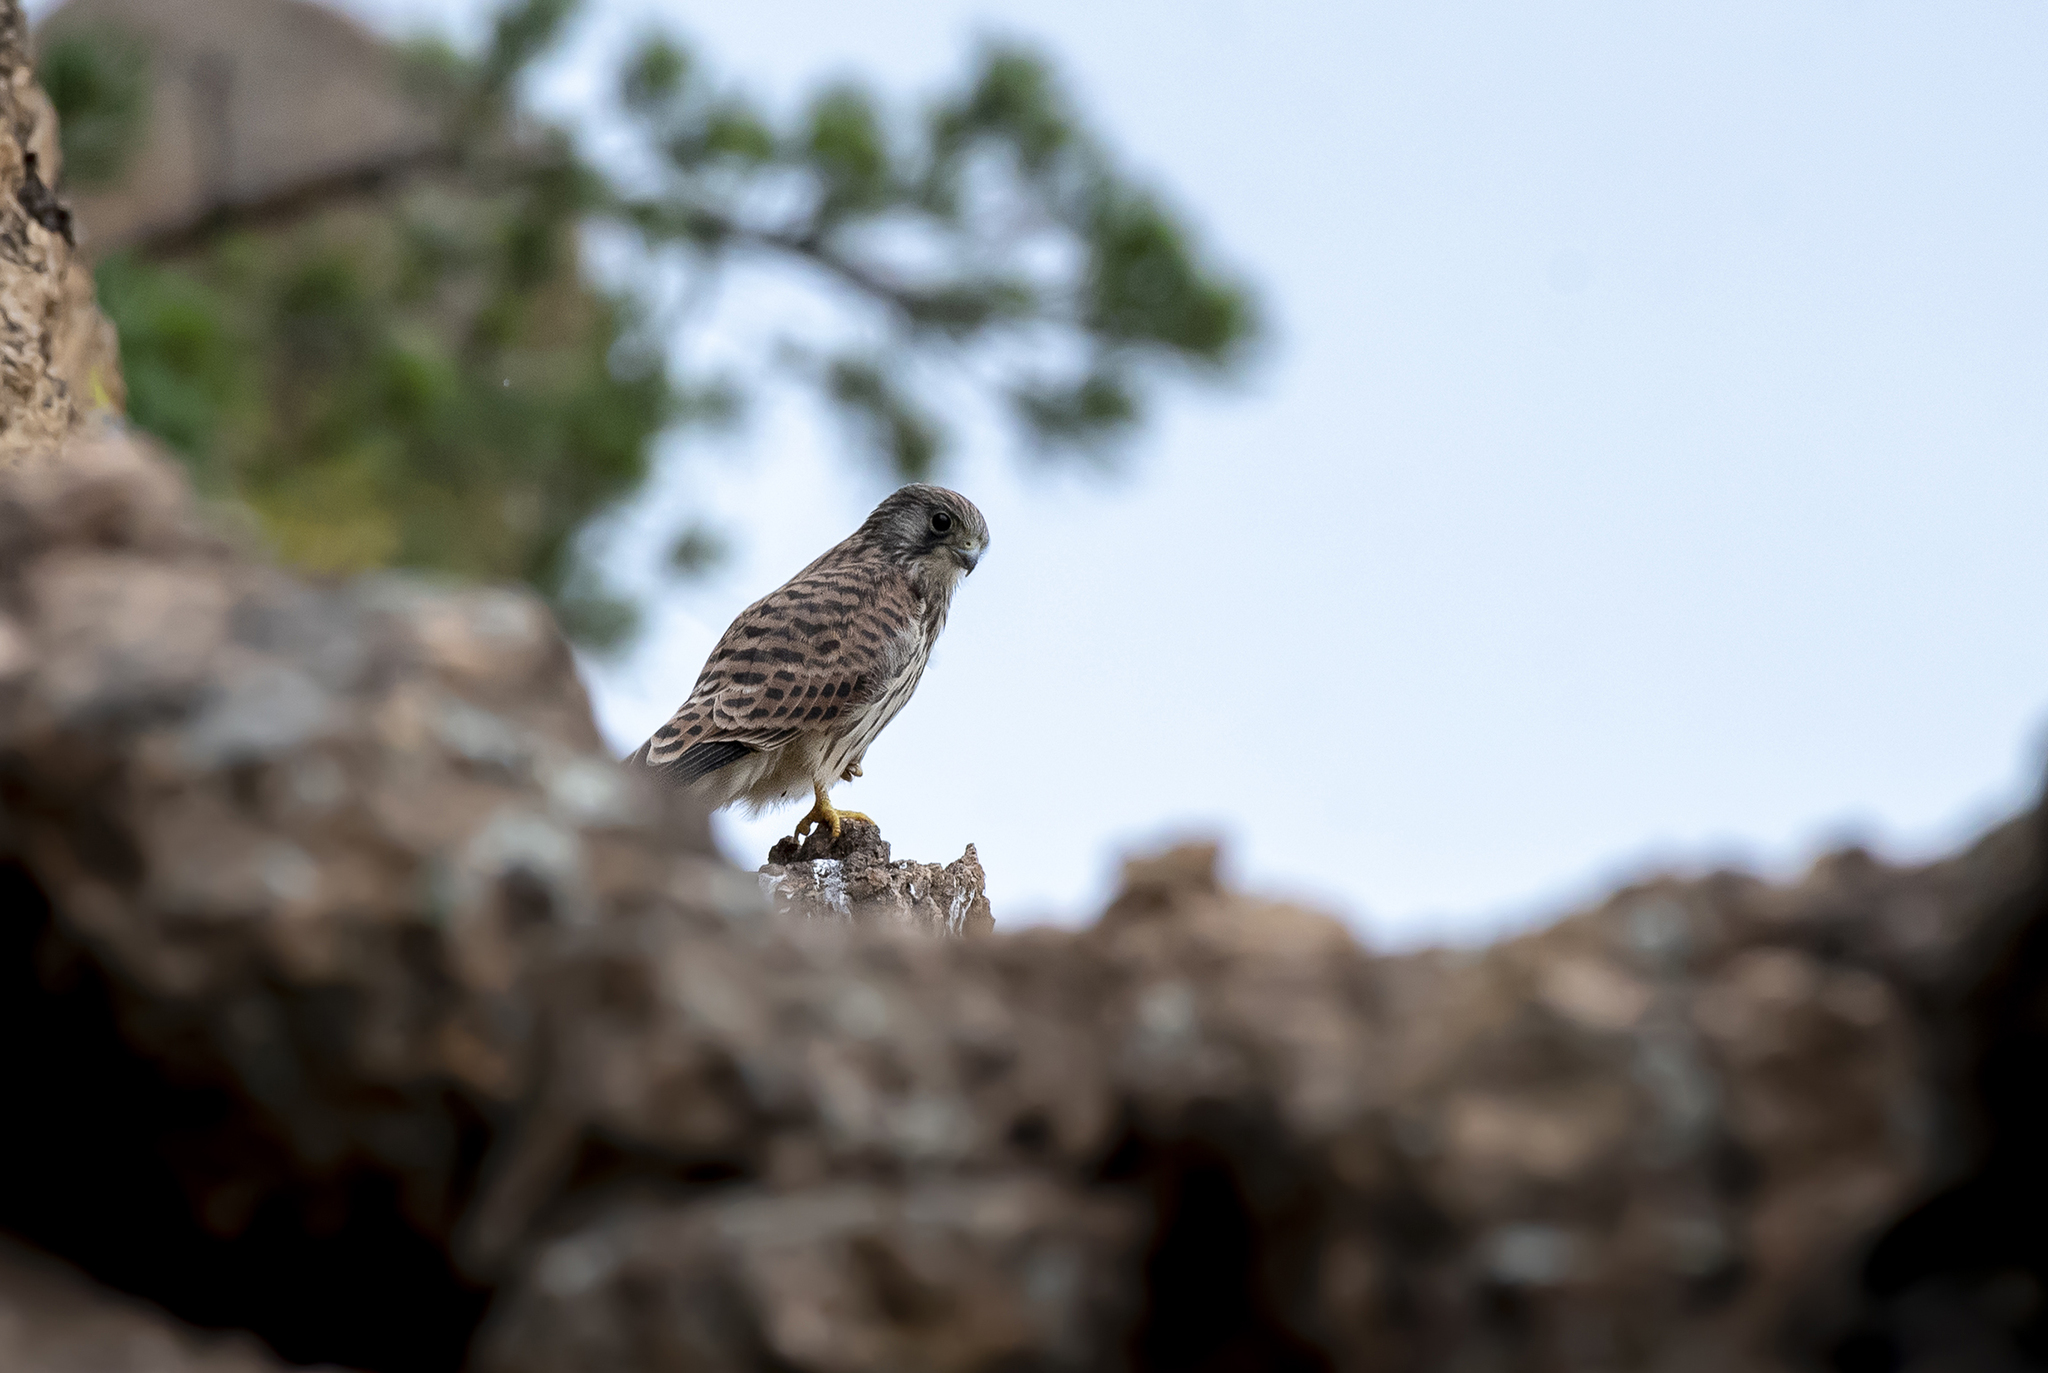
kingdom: Animalia
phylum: Chordata
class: Aves
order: Falconiformes
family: Falconidae
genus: Falco
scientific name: Falco naumanni
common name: Lesser kestrel
